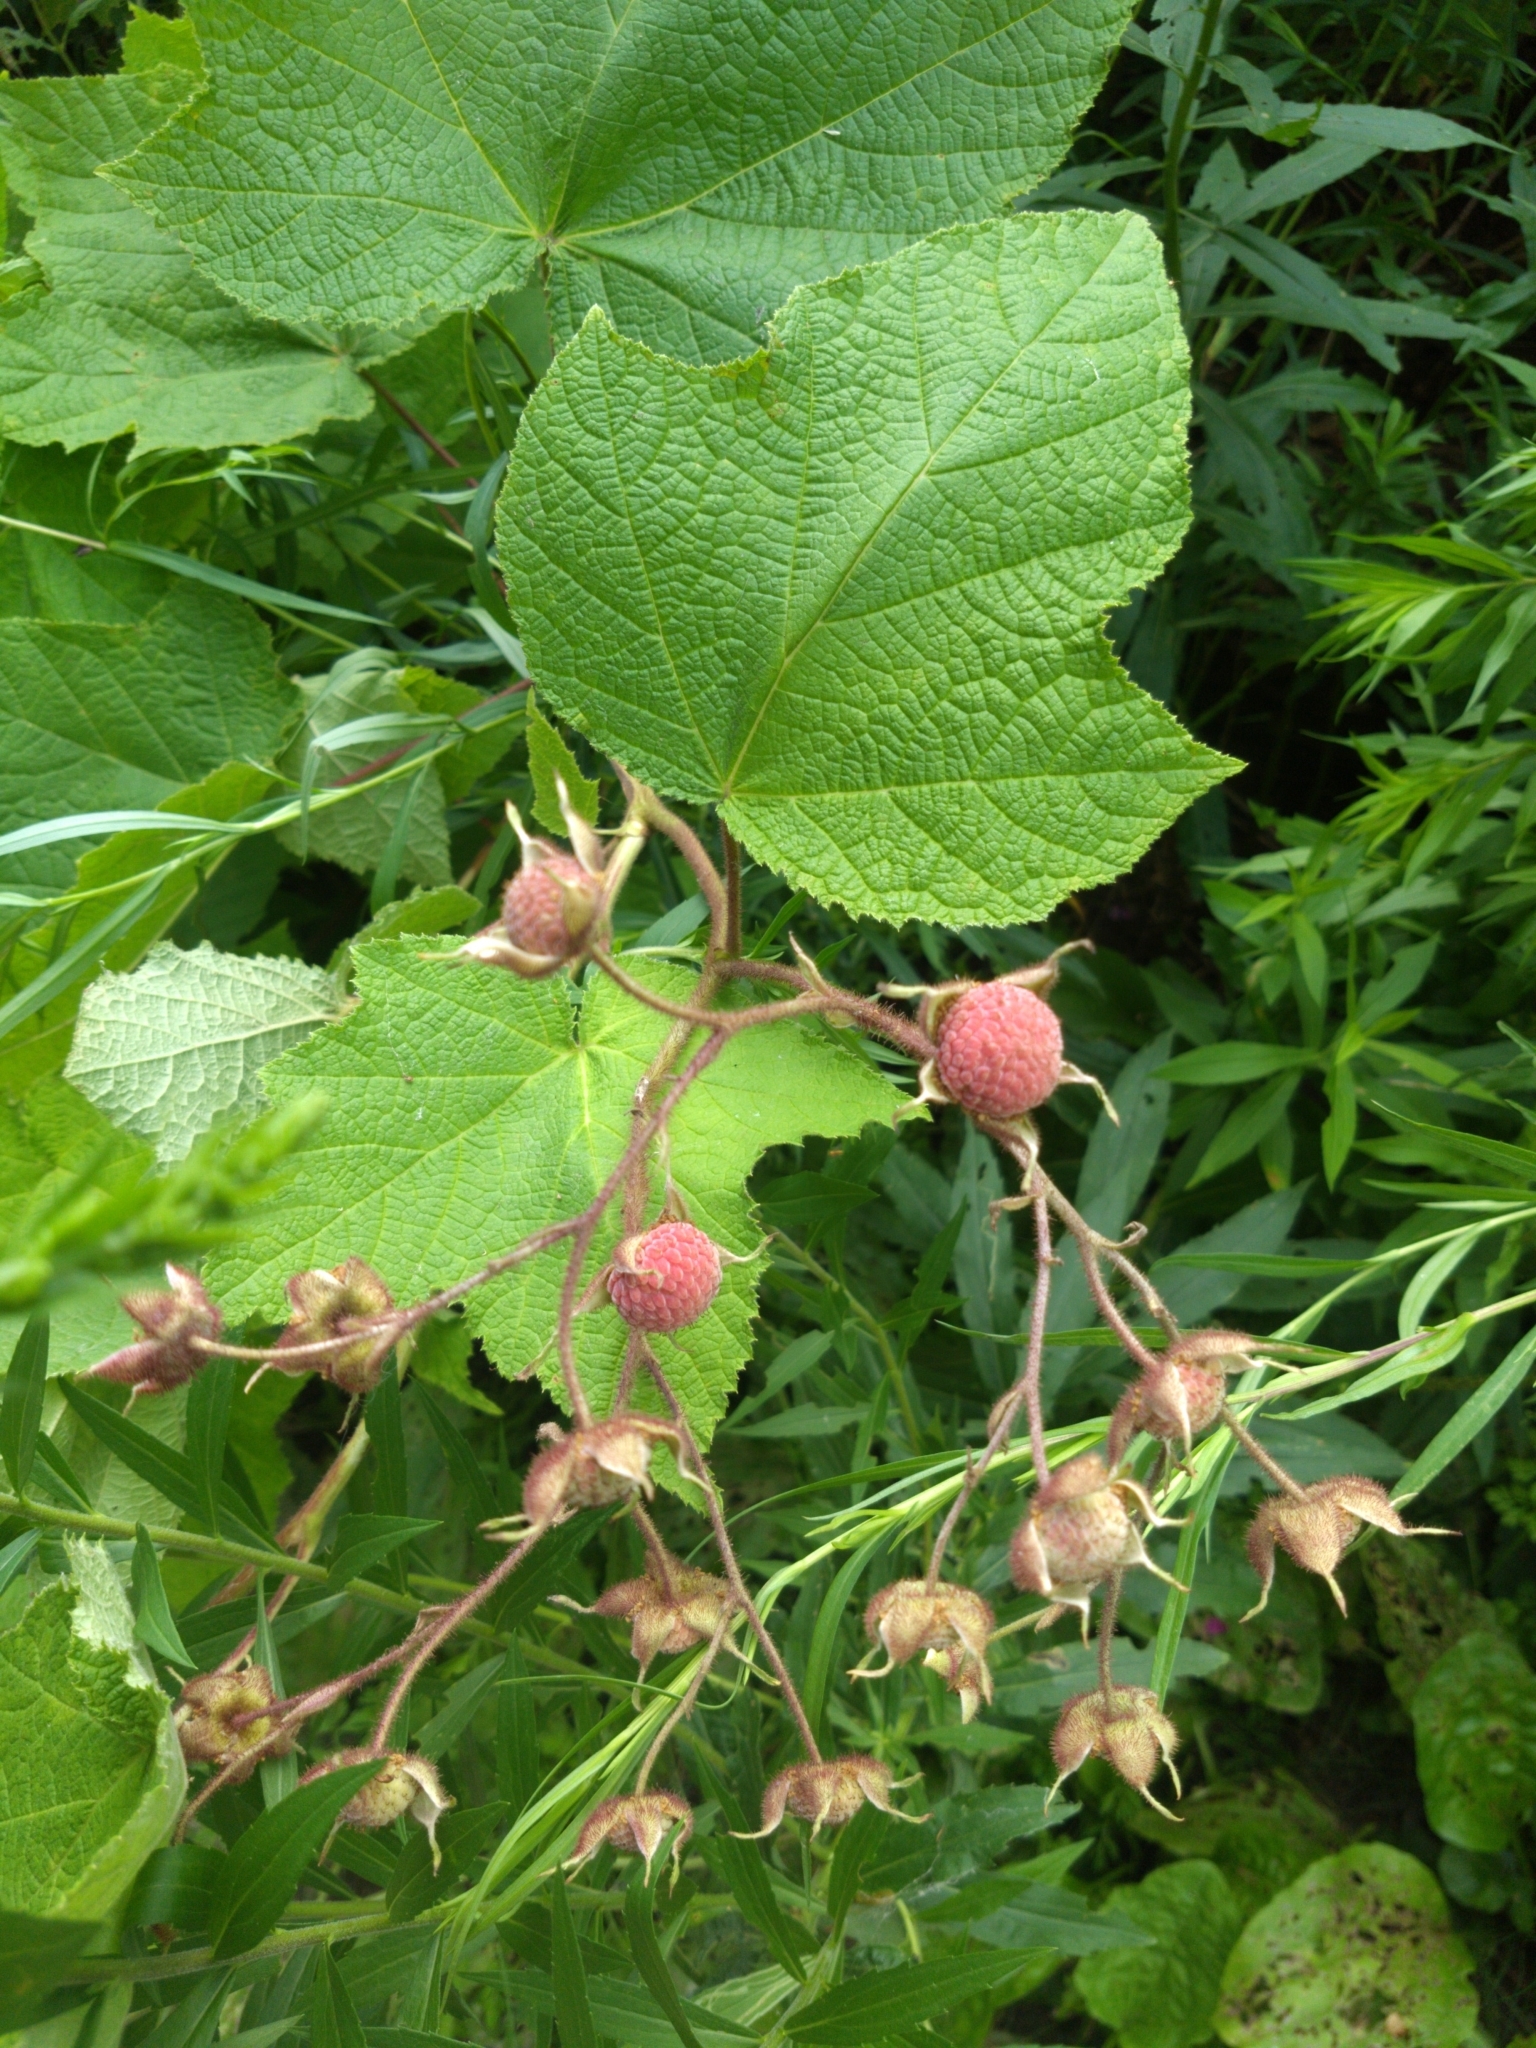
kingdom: Plantae
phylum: Tracheophyta
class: Magnoliopsida
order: Rosales
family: Rosaceae
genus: Rubus
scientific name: Rubus odoratus
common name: Purple-flowered raspberry
